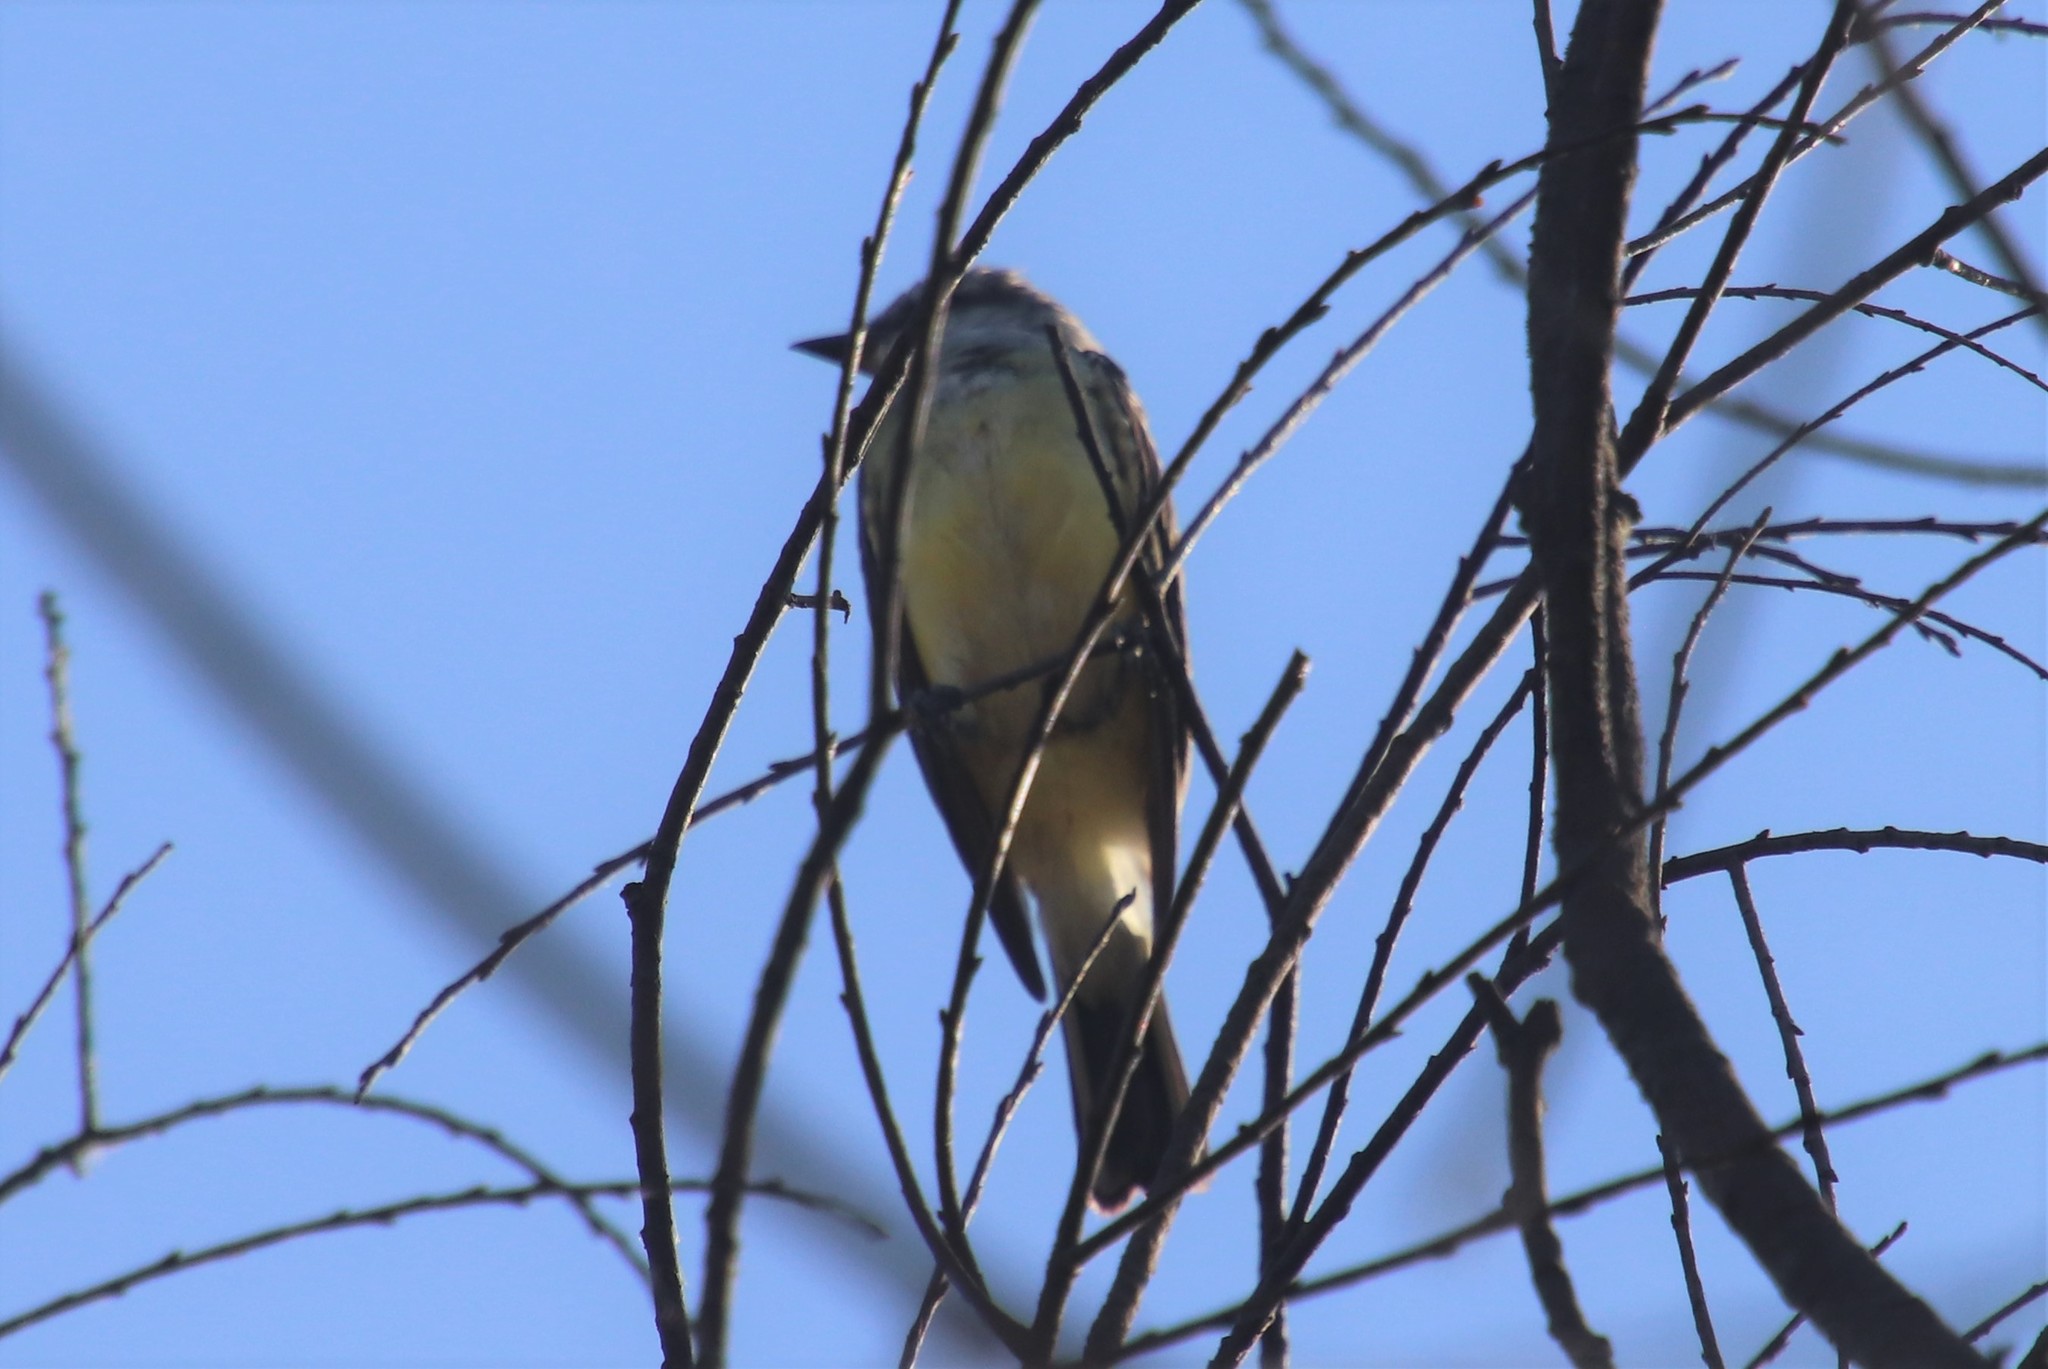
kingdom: Animalia
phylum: Chordata
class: Aves
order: Passeriformes
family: Tyrannidae
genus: Tyrannus
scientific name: Tyrannus verticalis
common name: Western kingbird
